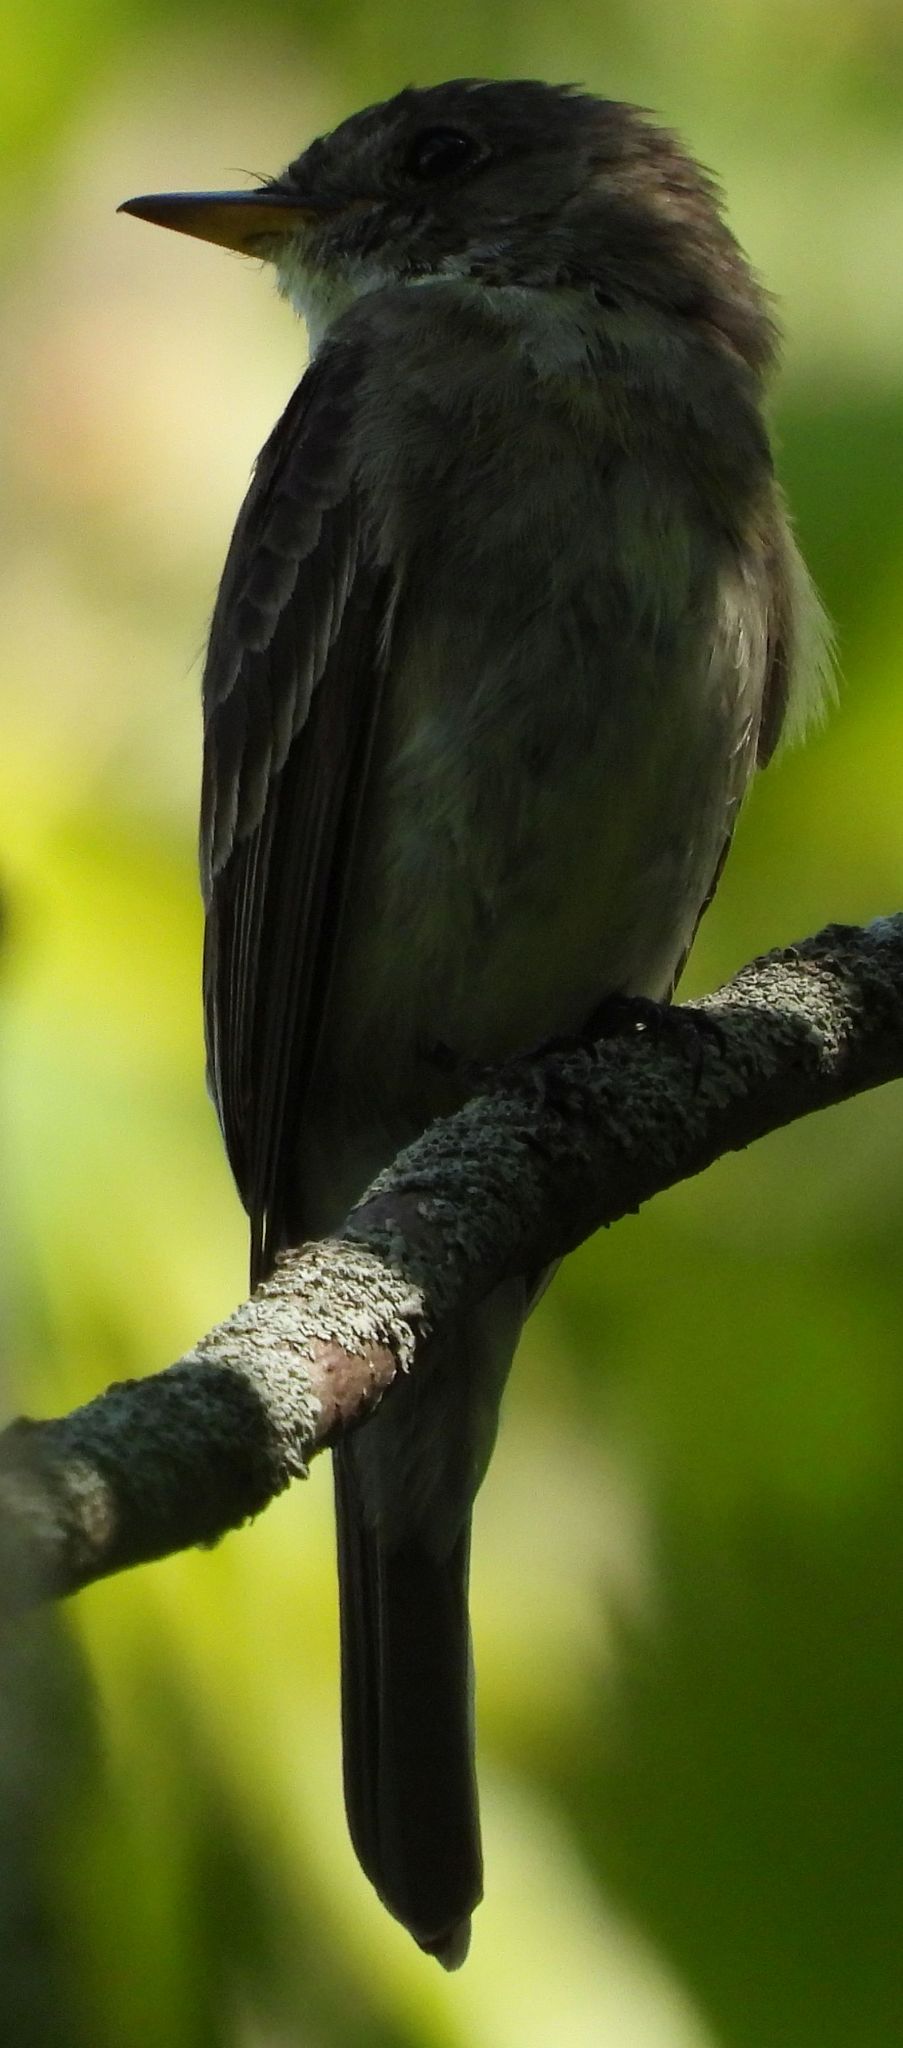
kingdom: Animalia
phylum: Chordata
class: Aves
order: Passeriformes
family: Tyrannidae
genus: Contopus
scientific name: Contopus virens
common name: Eastern wood-pewee
